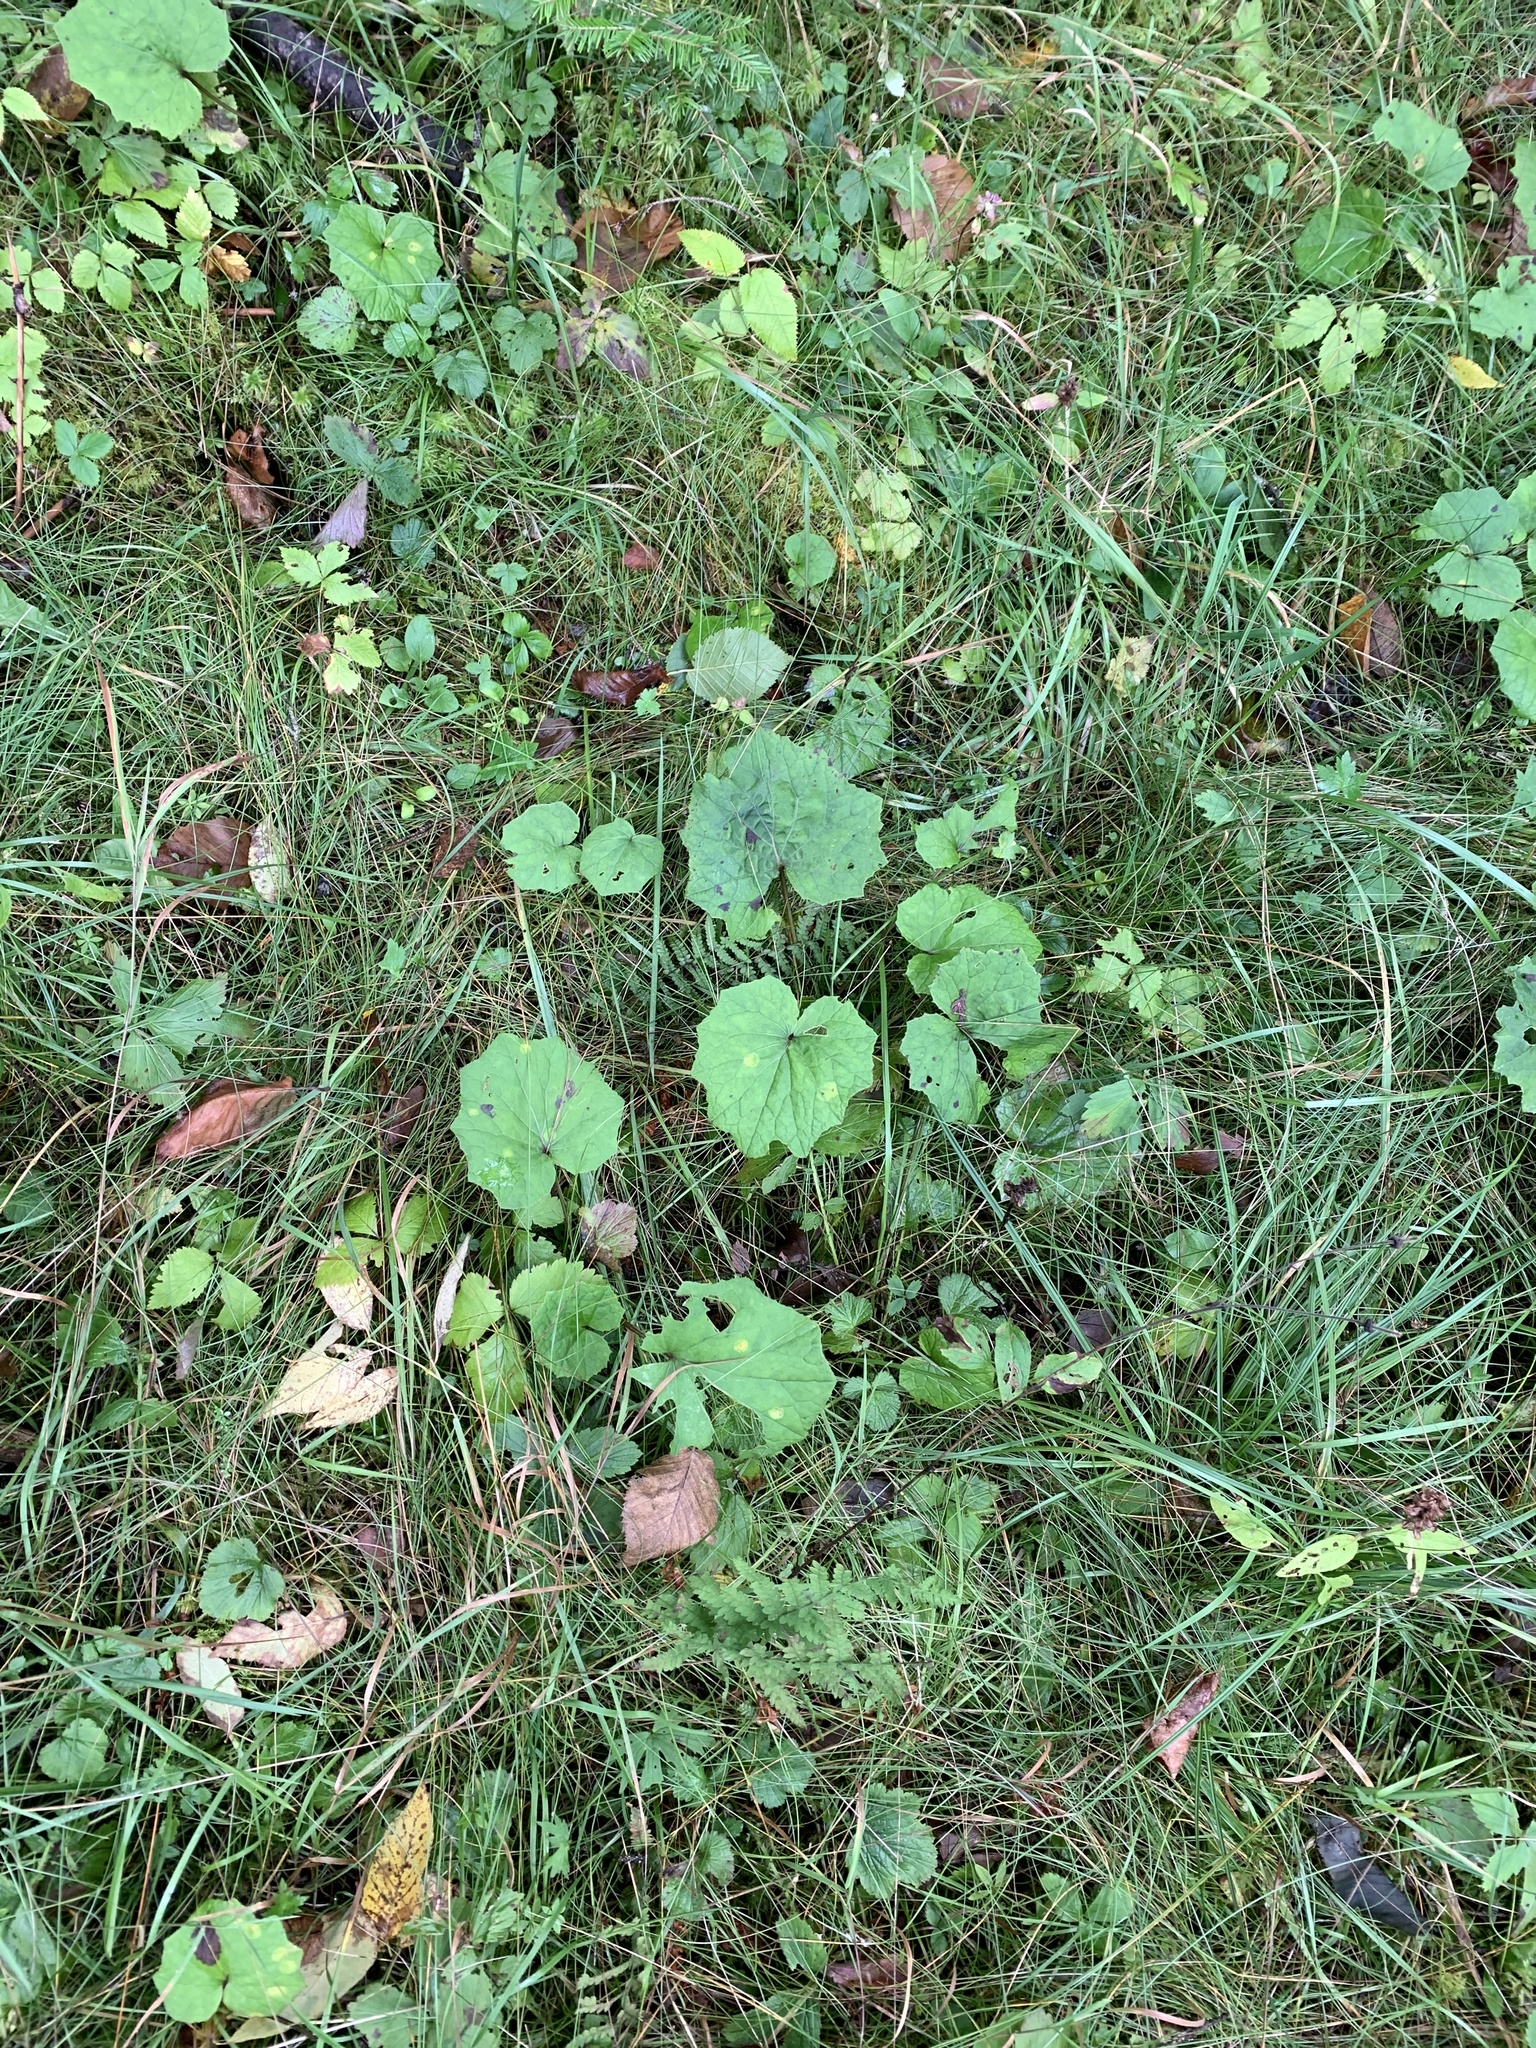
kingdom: Plantae
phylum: Tracheophyta
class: Magnoliopsida
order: Asterales
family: Asteraceae
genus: Tussilago
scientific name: Tussilago farfara
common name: Coltsfoot
